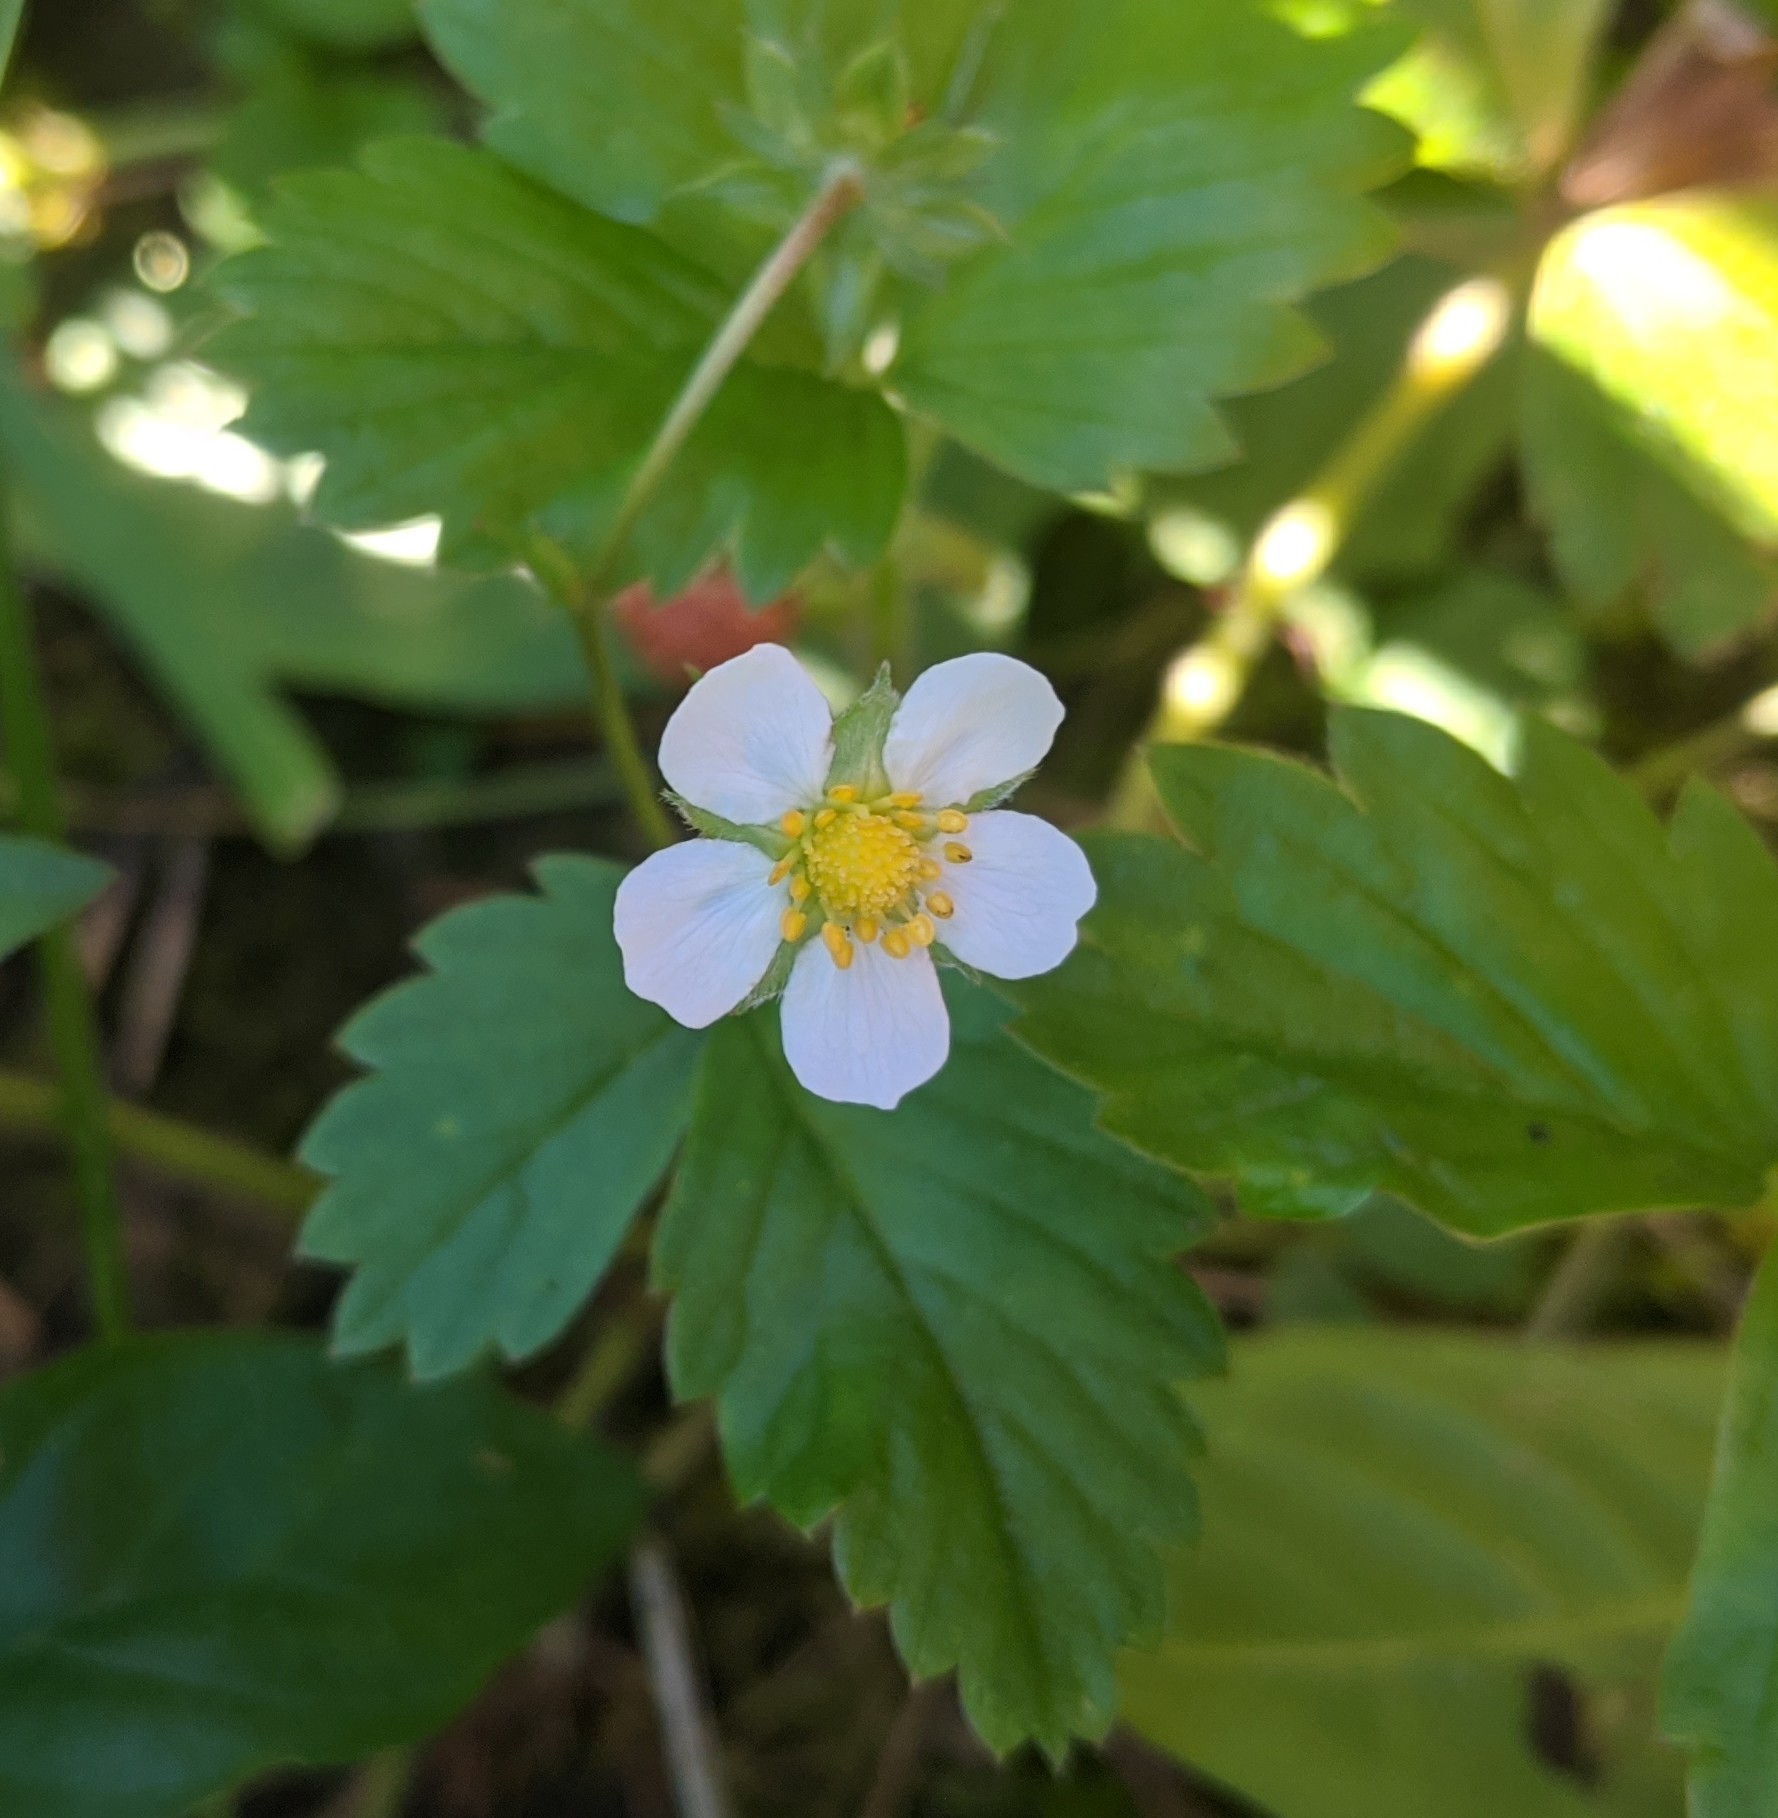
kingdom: Plantae
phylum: Tracheophyta
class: Magnoliopsida
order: Rosales
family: Rosaceae
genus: Fragaria
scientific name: Fragaria vesca
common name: Wild strawberry
